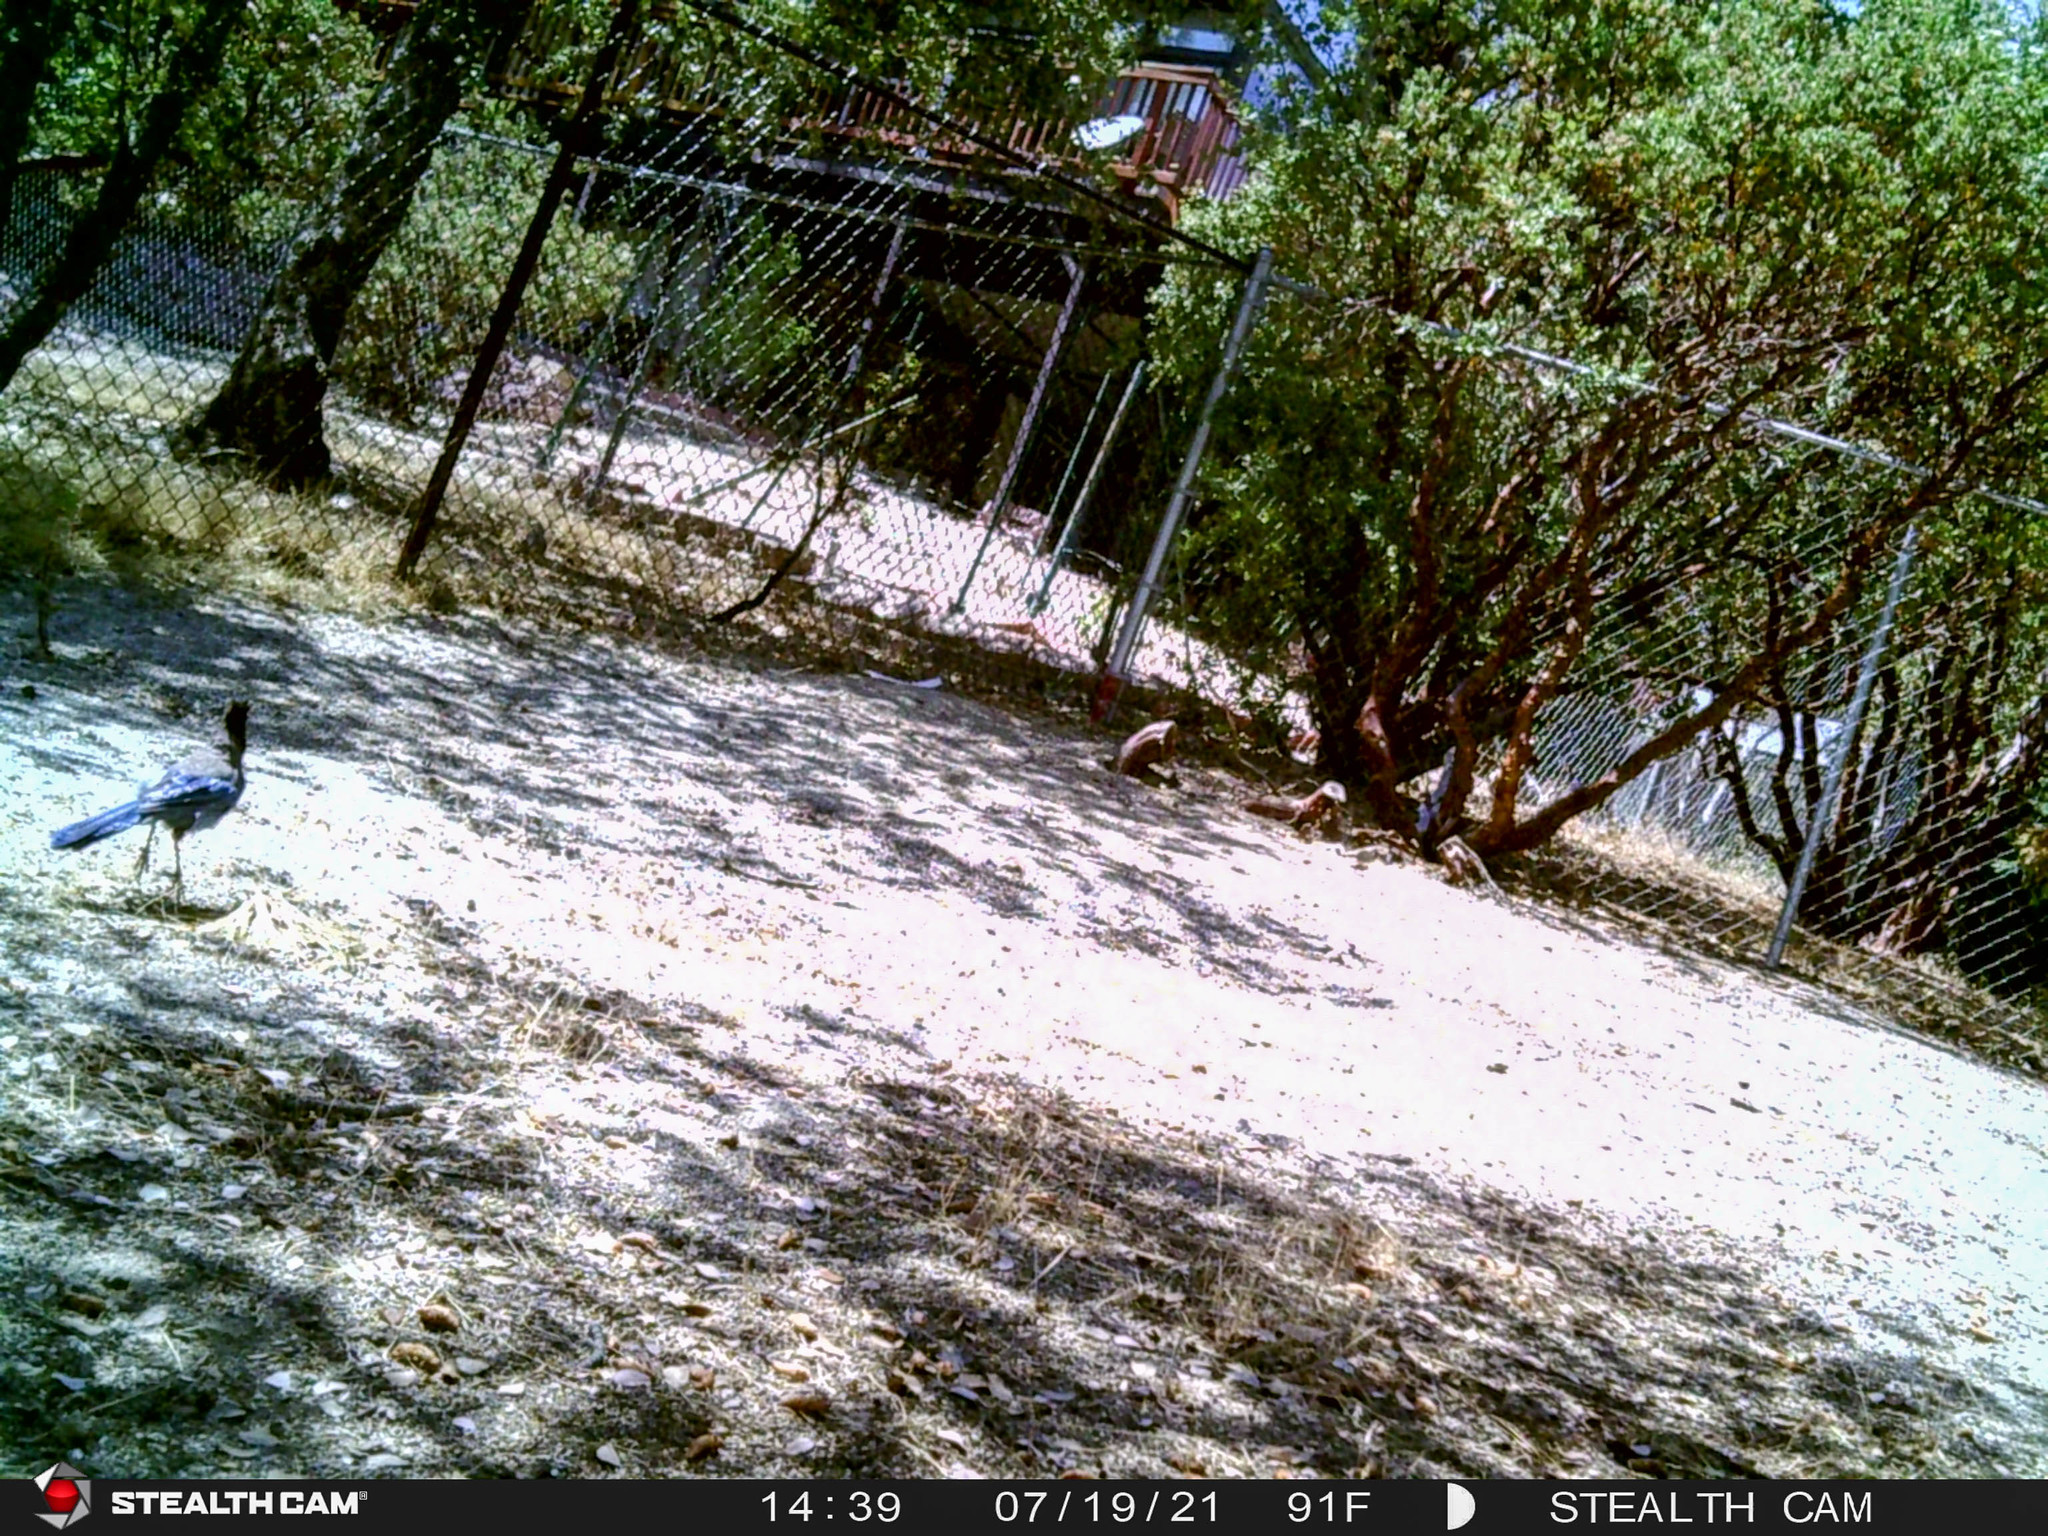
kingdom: Animalia
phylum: Chordata
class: Aves
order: Passeriformes
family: Corvidae
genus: Cyanocitta
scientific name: Cyanocitta stelleri
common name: Steller's jay
